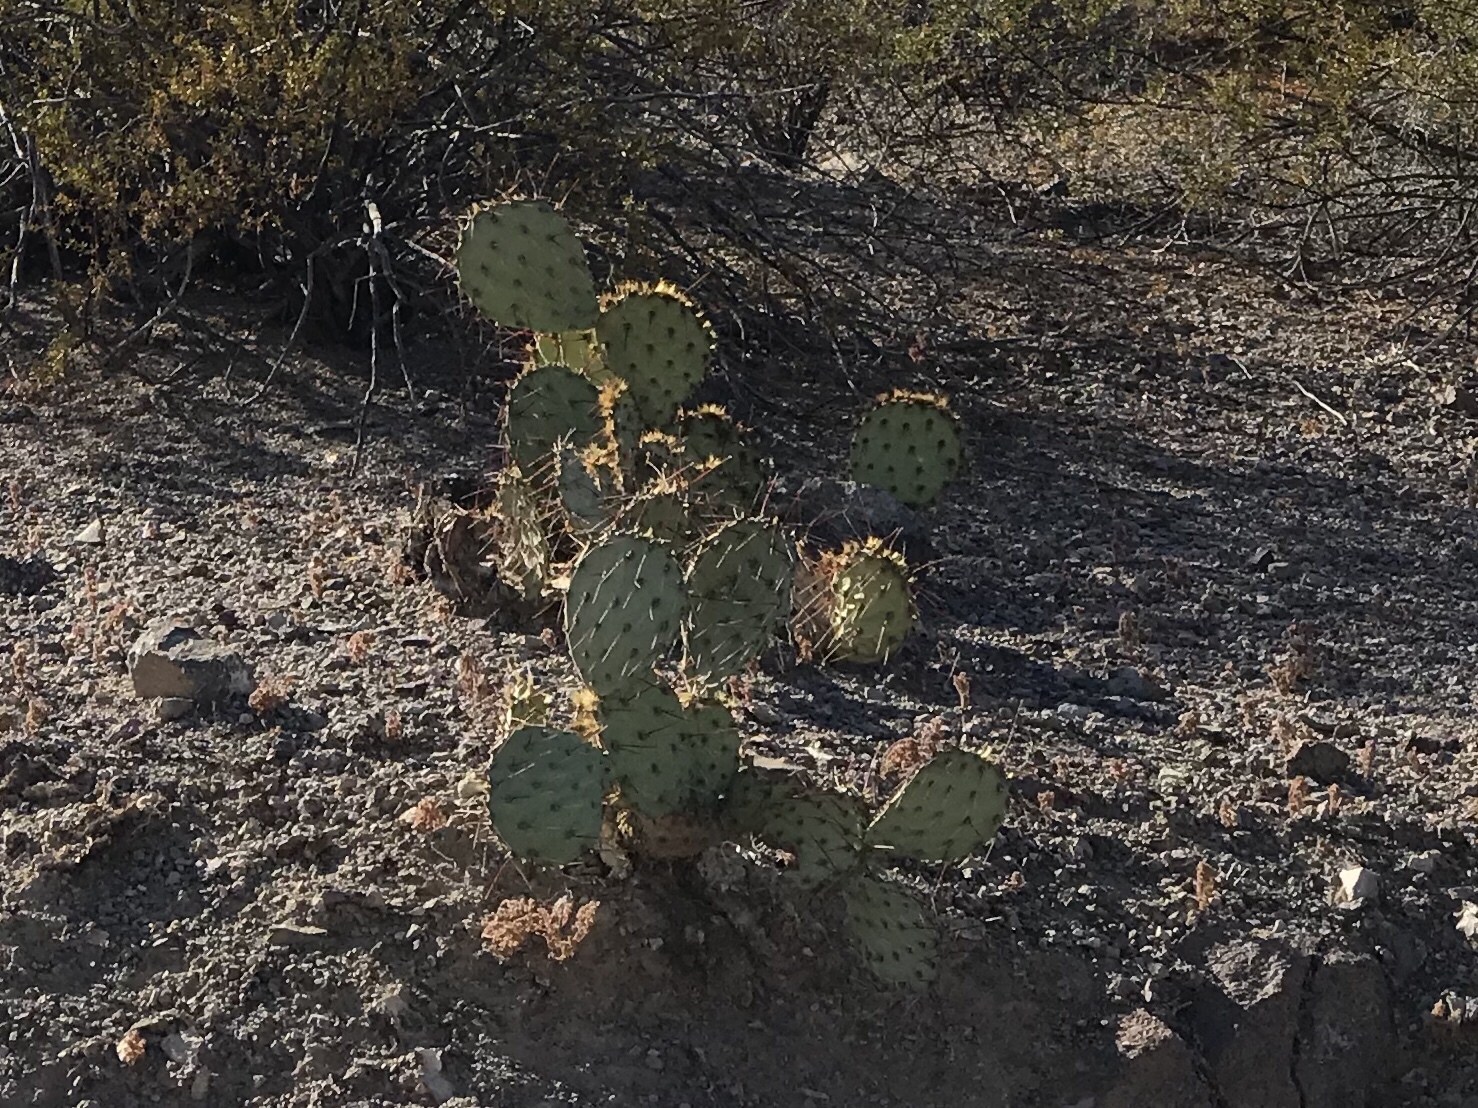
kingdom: Plantae
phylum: Tracheophyta
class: Magnoliopsida
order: Caryophyllales
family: Cactaceae
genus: Opuntia
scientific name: Opuntia engelmannii
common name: Cactus-apple
